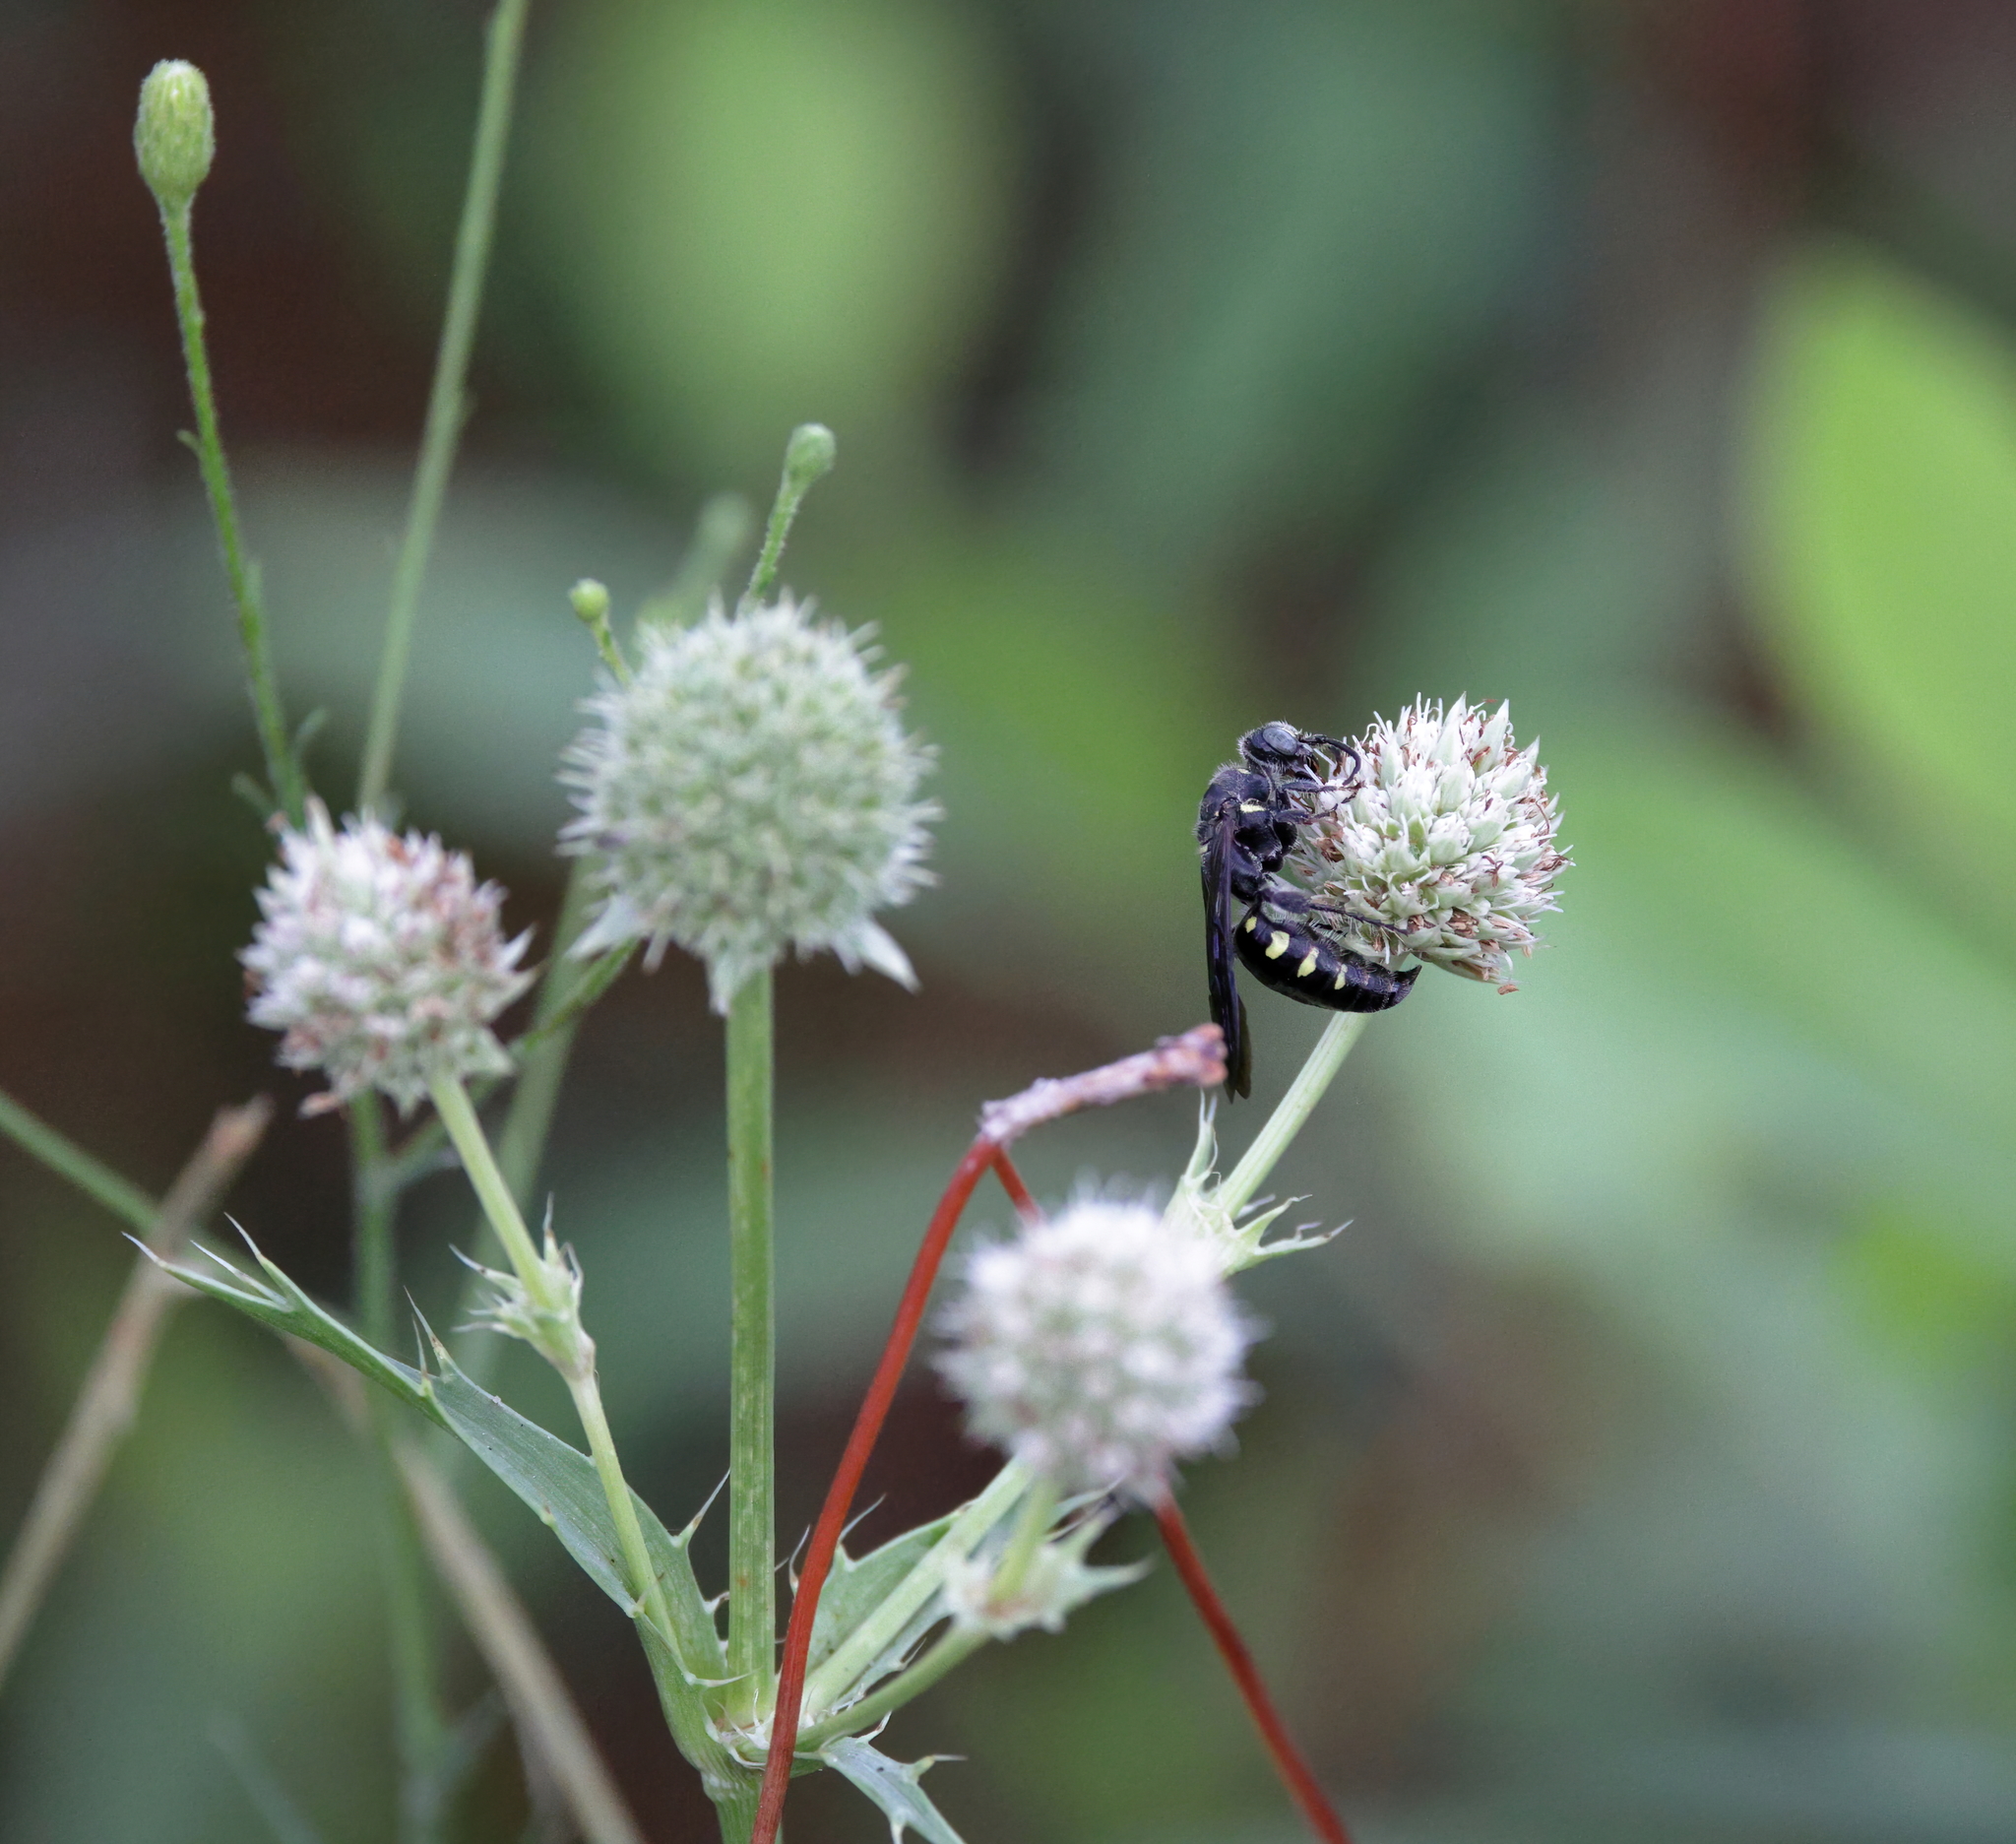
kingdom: Animalia
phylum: Arthropoda
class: Insecta
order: Hymenoptera
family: Tiphiidae
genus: Myzinum
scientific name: Myzinum obscurum
